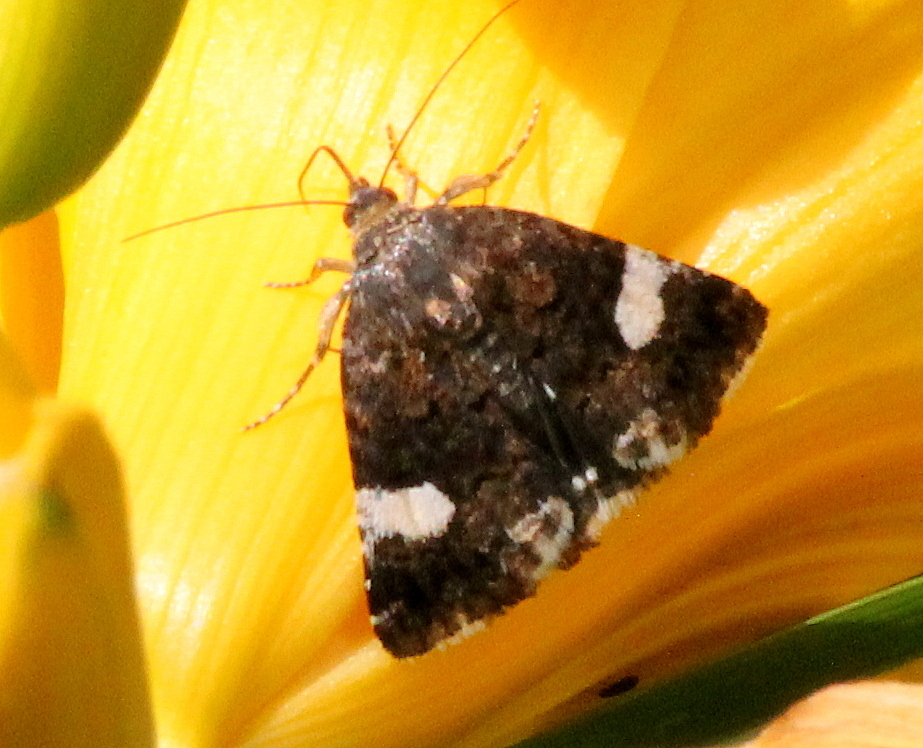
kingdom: Animalia
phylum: Arthropoda
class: Insecta
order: Lepidoptera
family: Erebidae
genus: Tyta
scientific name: Tyta luctuosa
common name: Four-spotted
